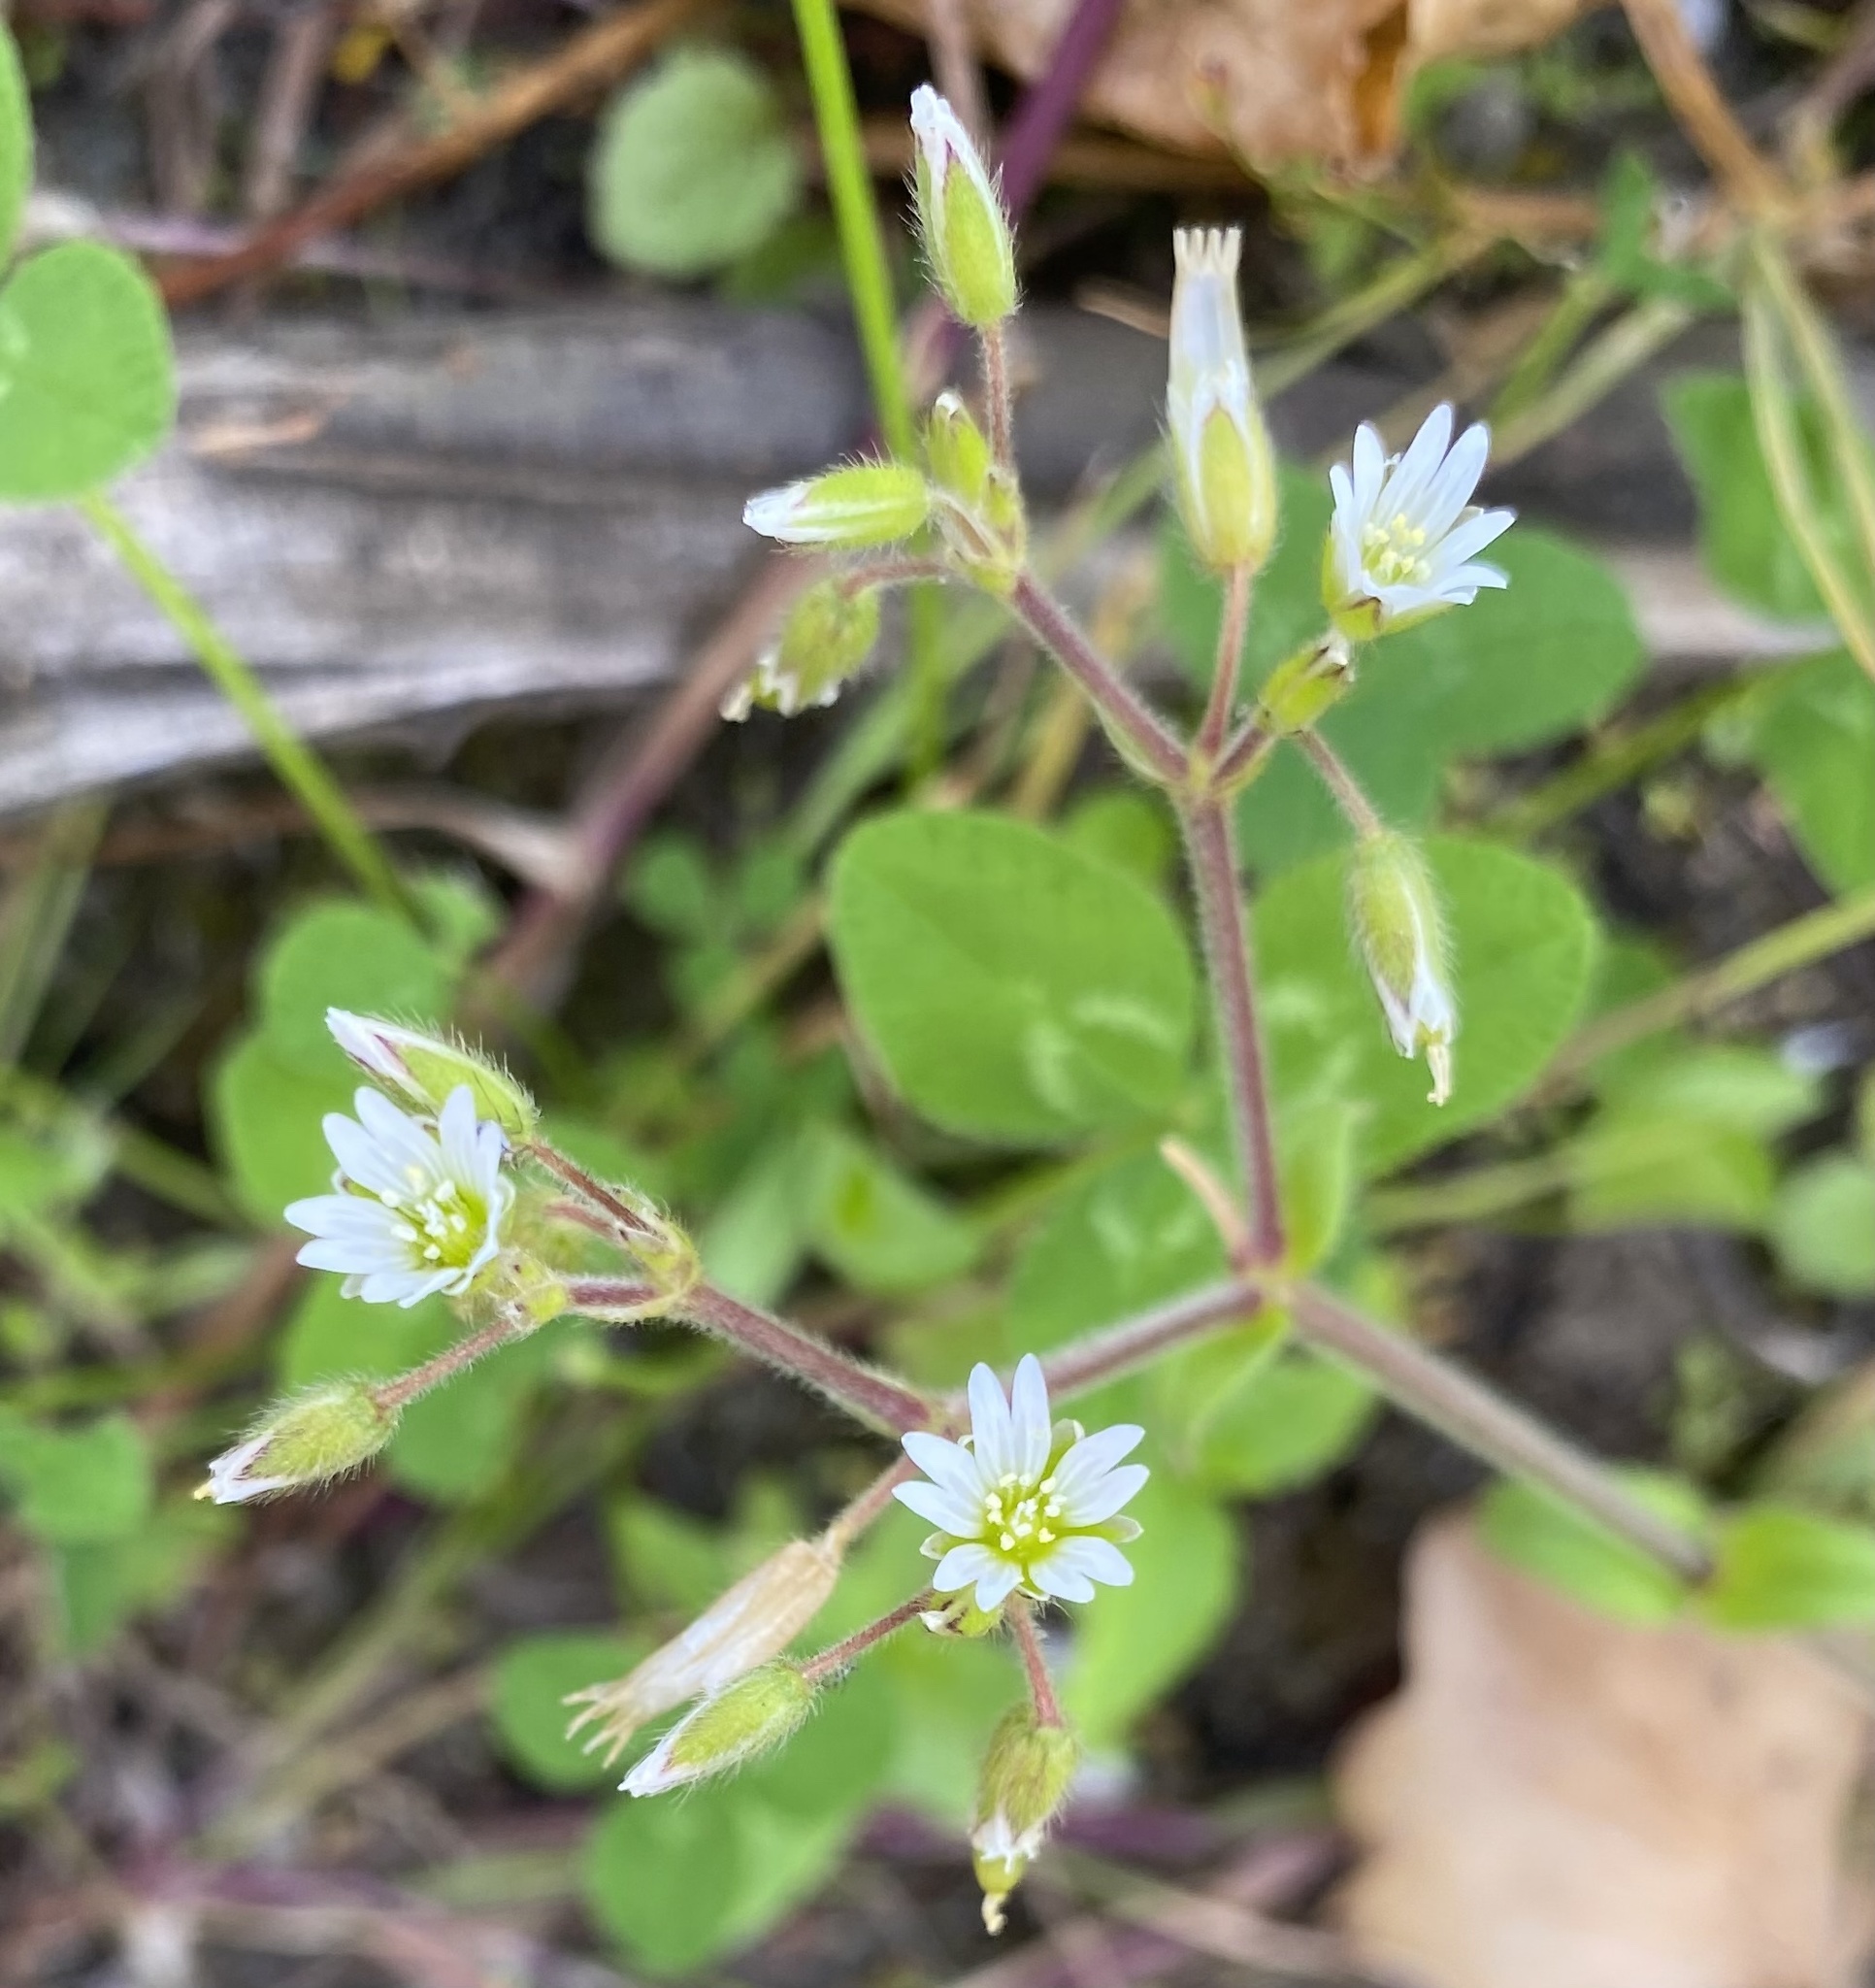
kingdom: Plantae
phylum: Tracheophyta
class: Magnoliopsida
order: Caryophyllales
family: Caryophyllaceae
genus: Cerastium
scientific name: Cerastium fontanum
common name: Common mouse-ear
